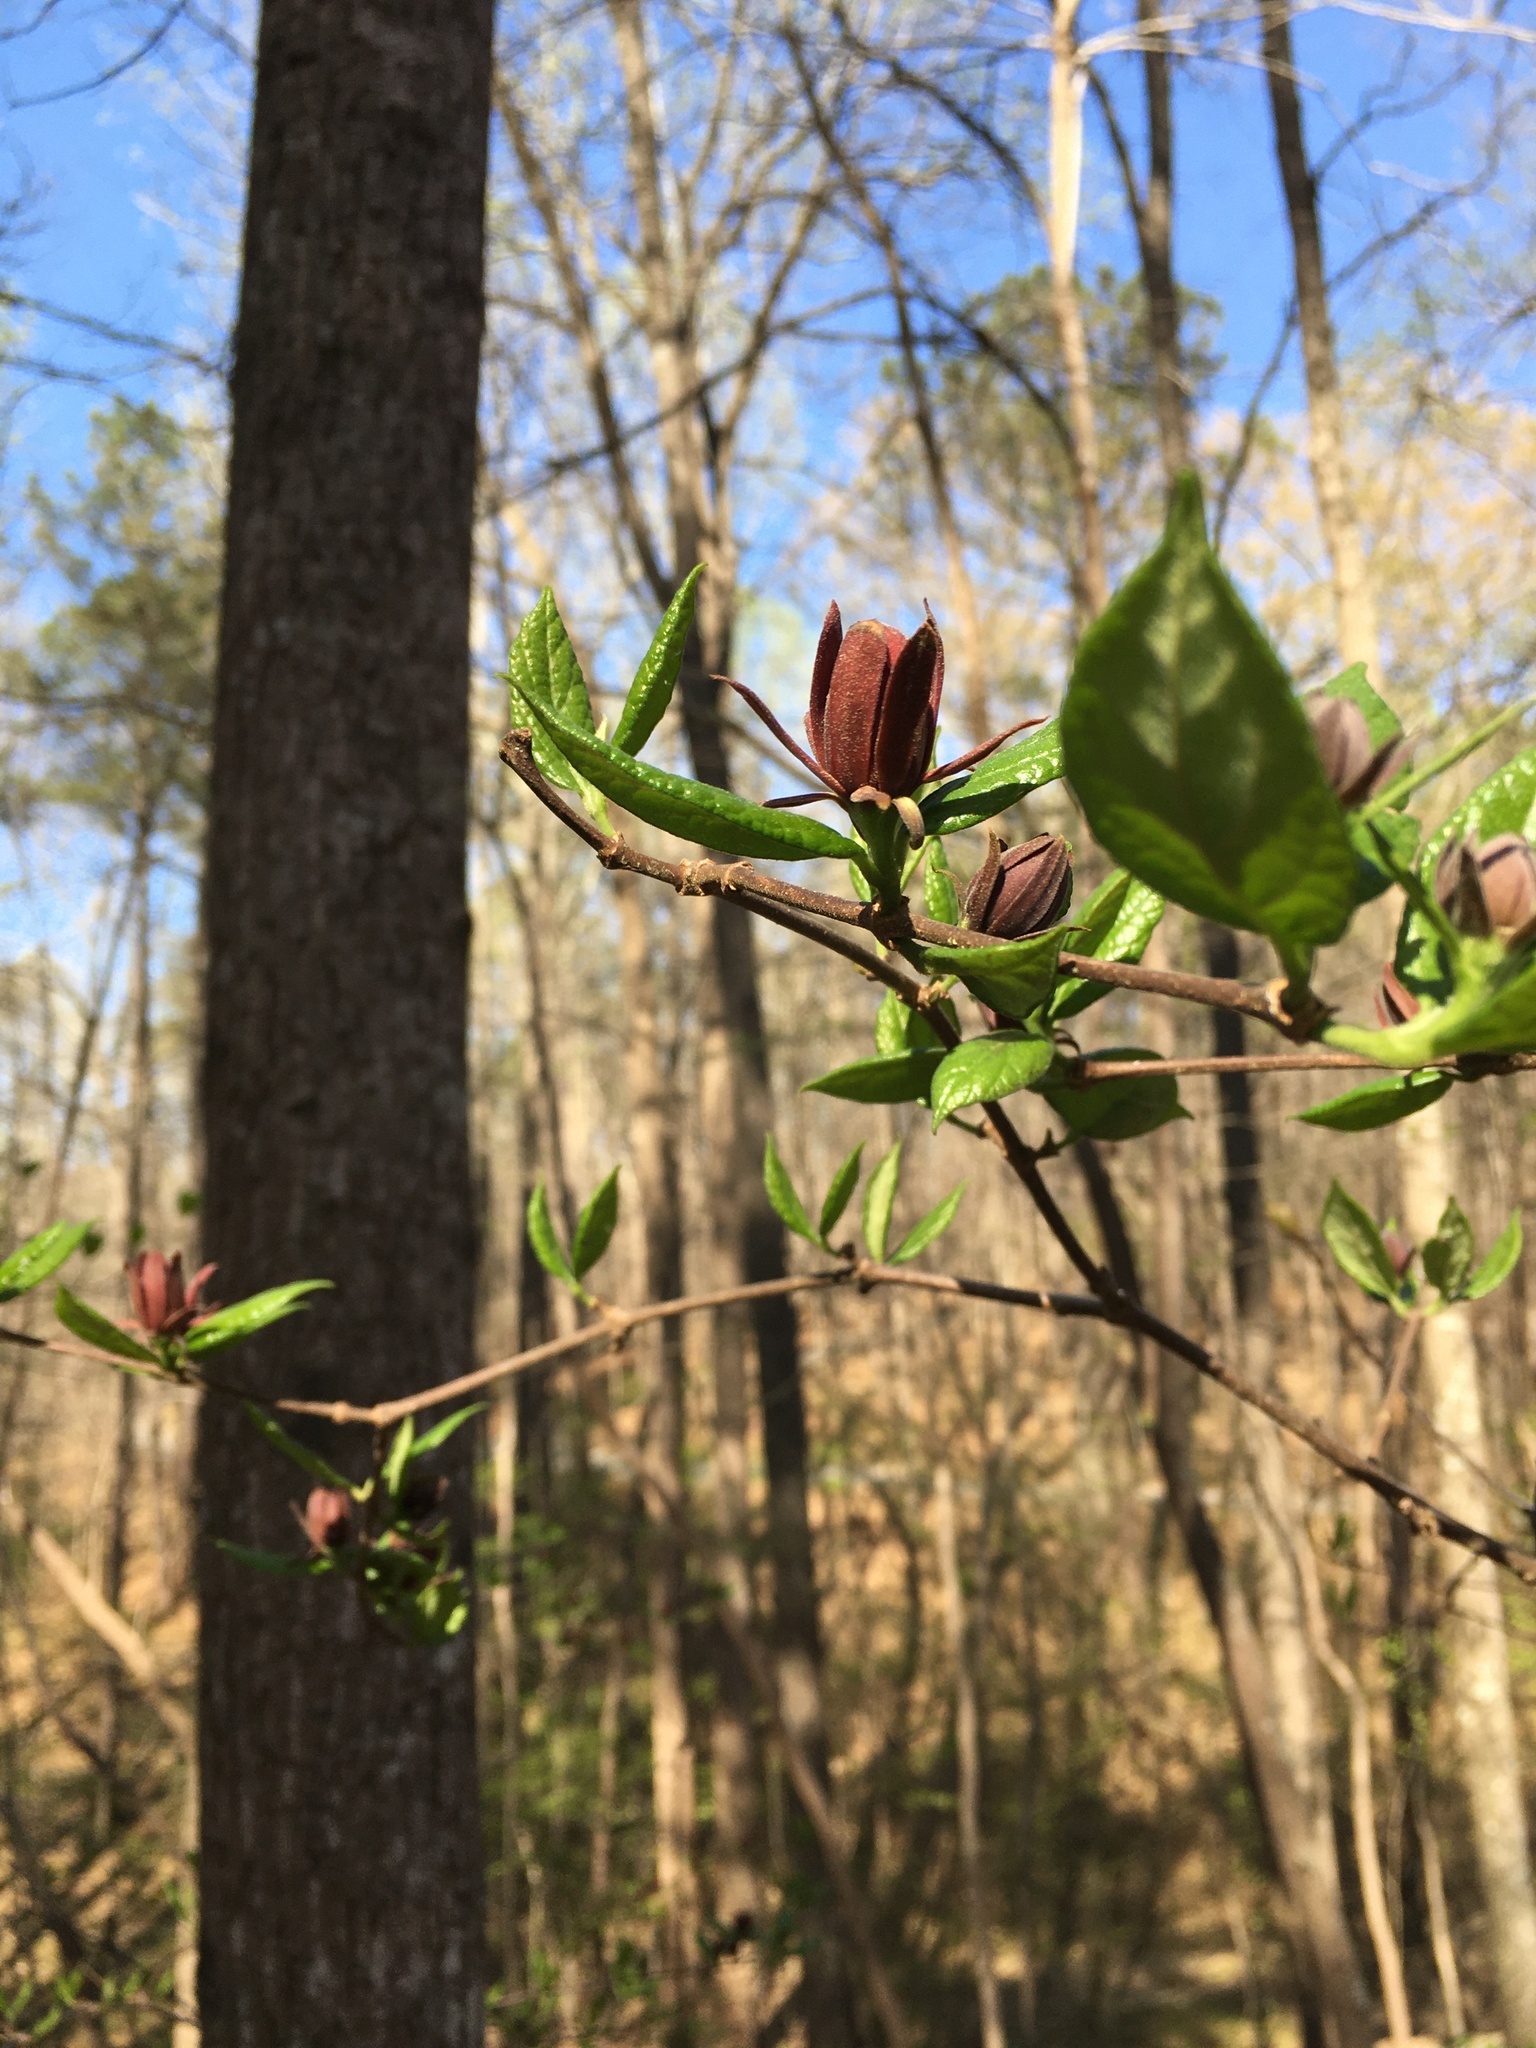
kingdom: Plantae
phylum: Tracheophyta
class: Magnoliopsida
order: Laurales
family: Calycanthaceae
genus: Calycanthus
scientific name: Calycanthus floridus
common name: Carolina-allspice
